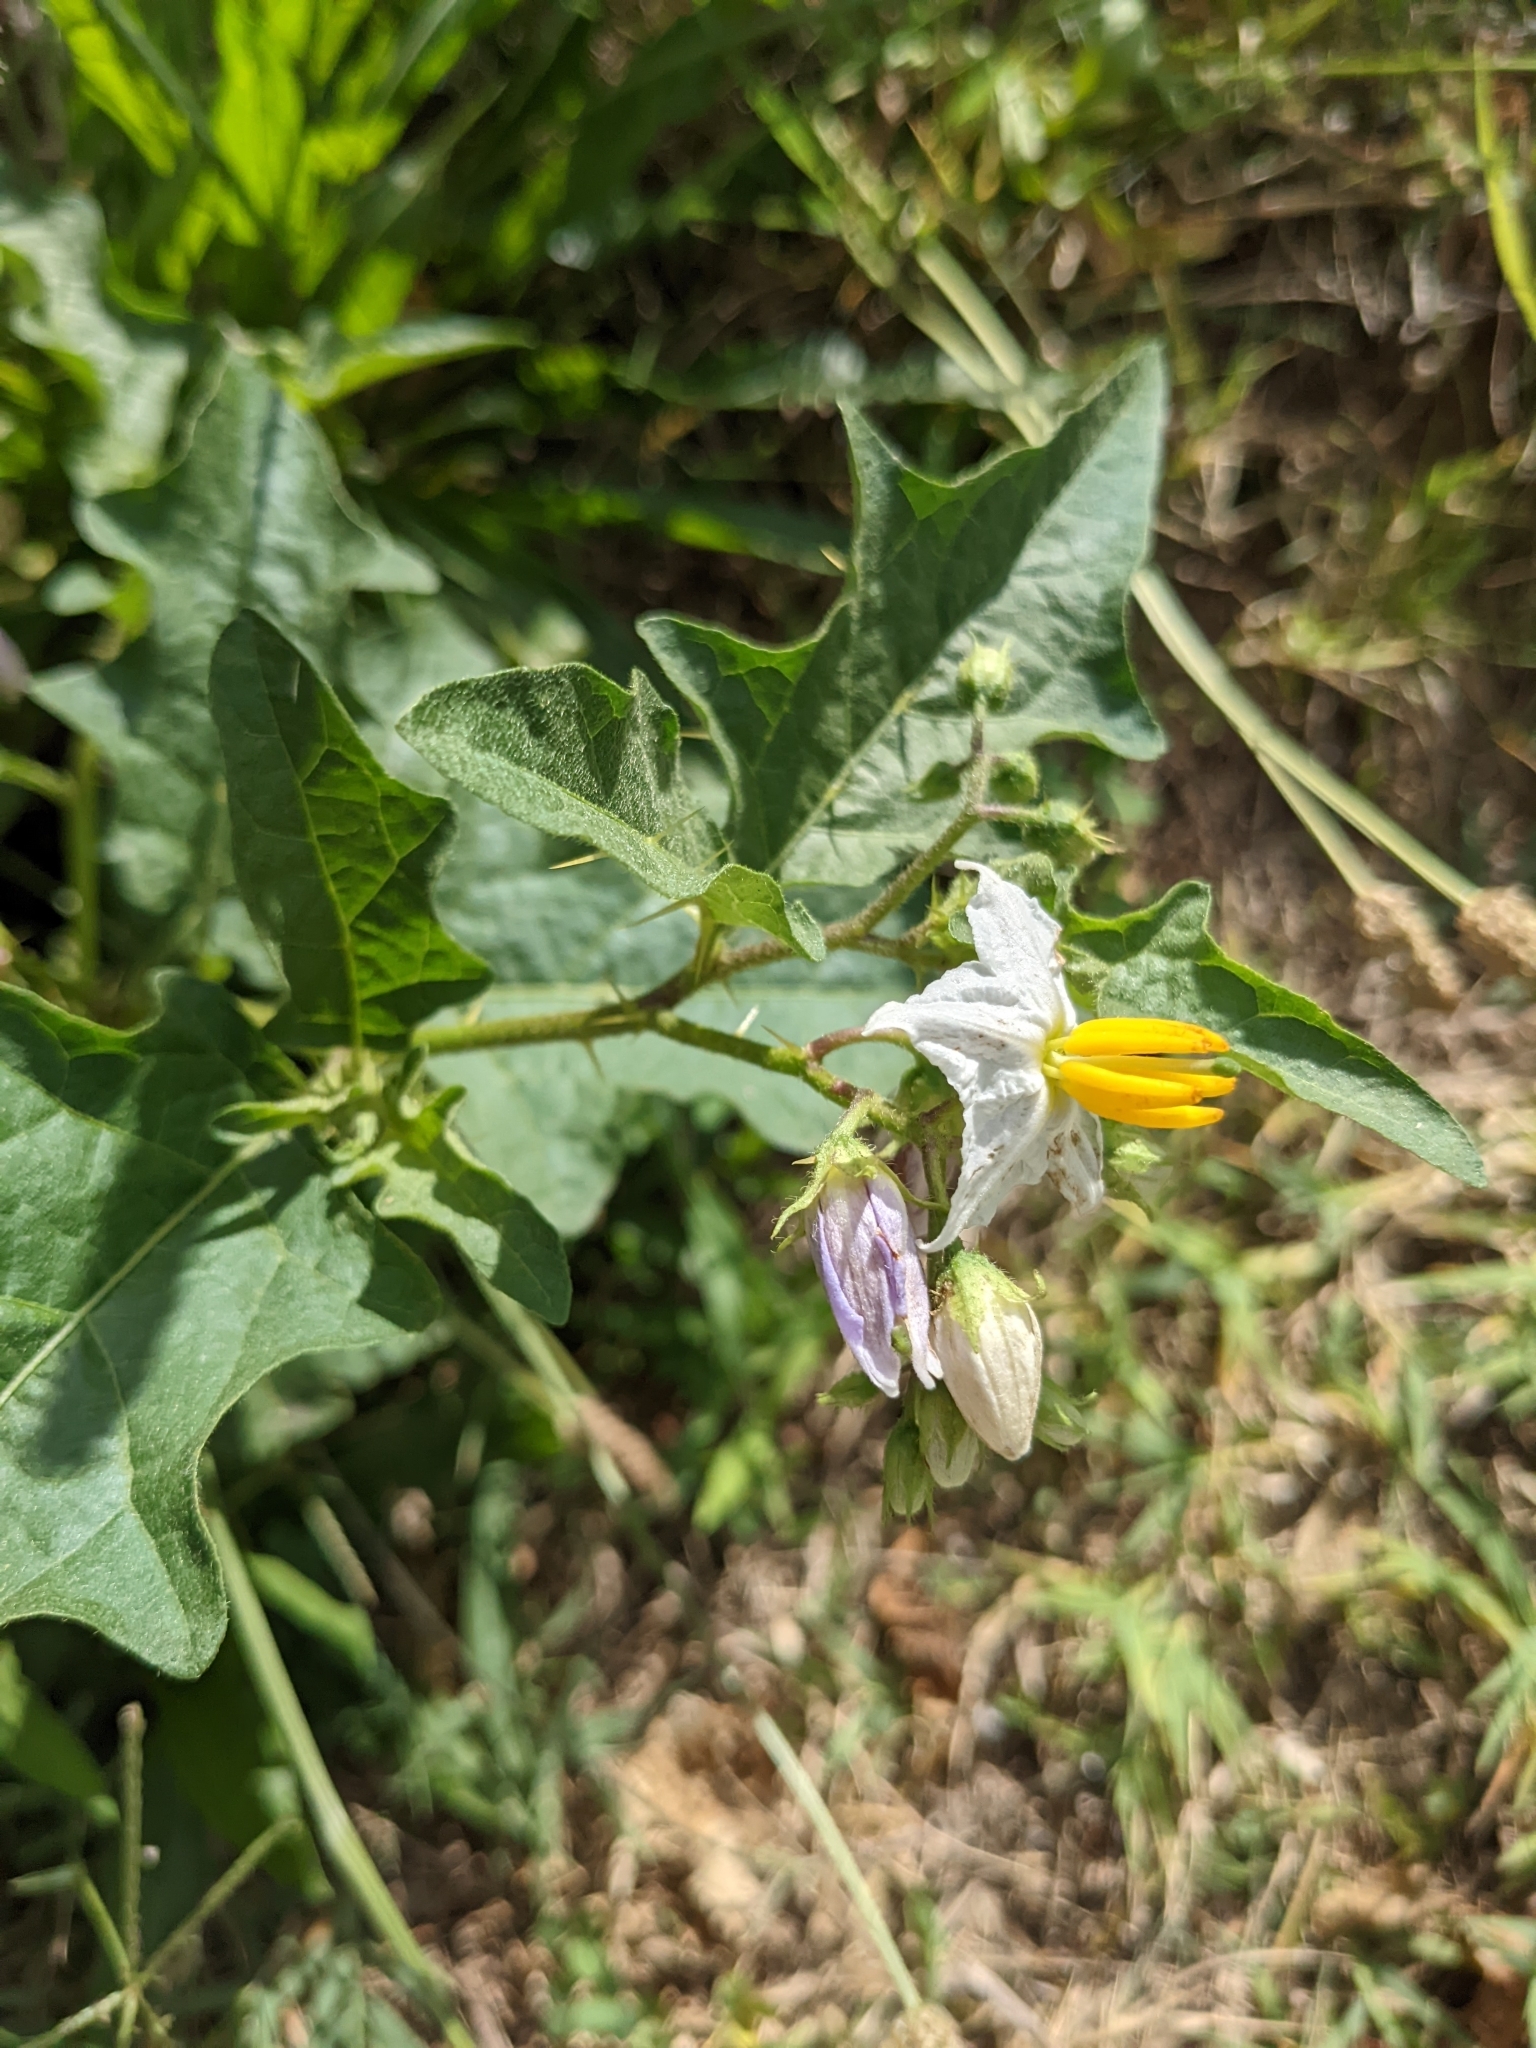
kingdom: Plantae
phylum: Tracheophyta
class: Magnoliopsida
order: Solanales
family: Solanaceae
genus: Solanum
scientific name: Solanum carolinense
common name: Horse-nettle
